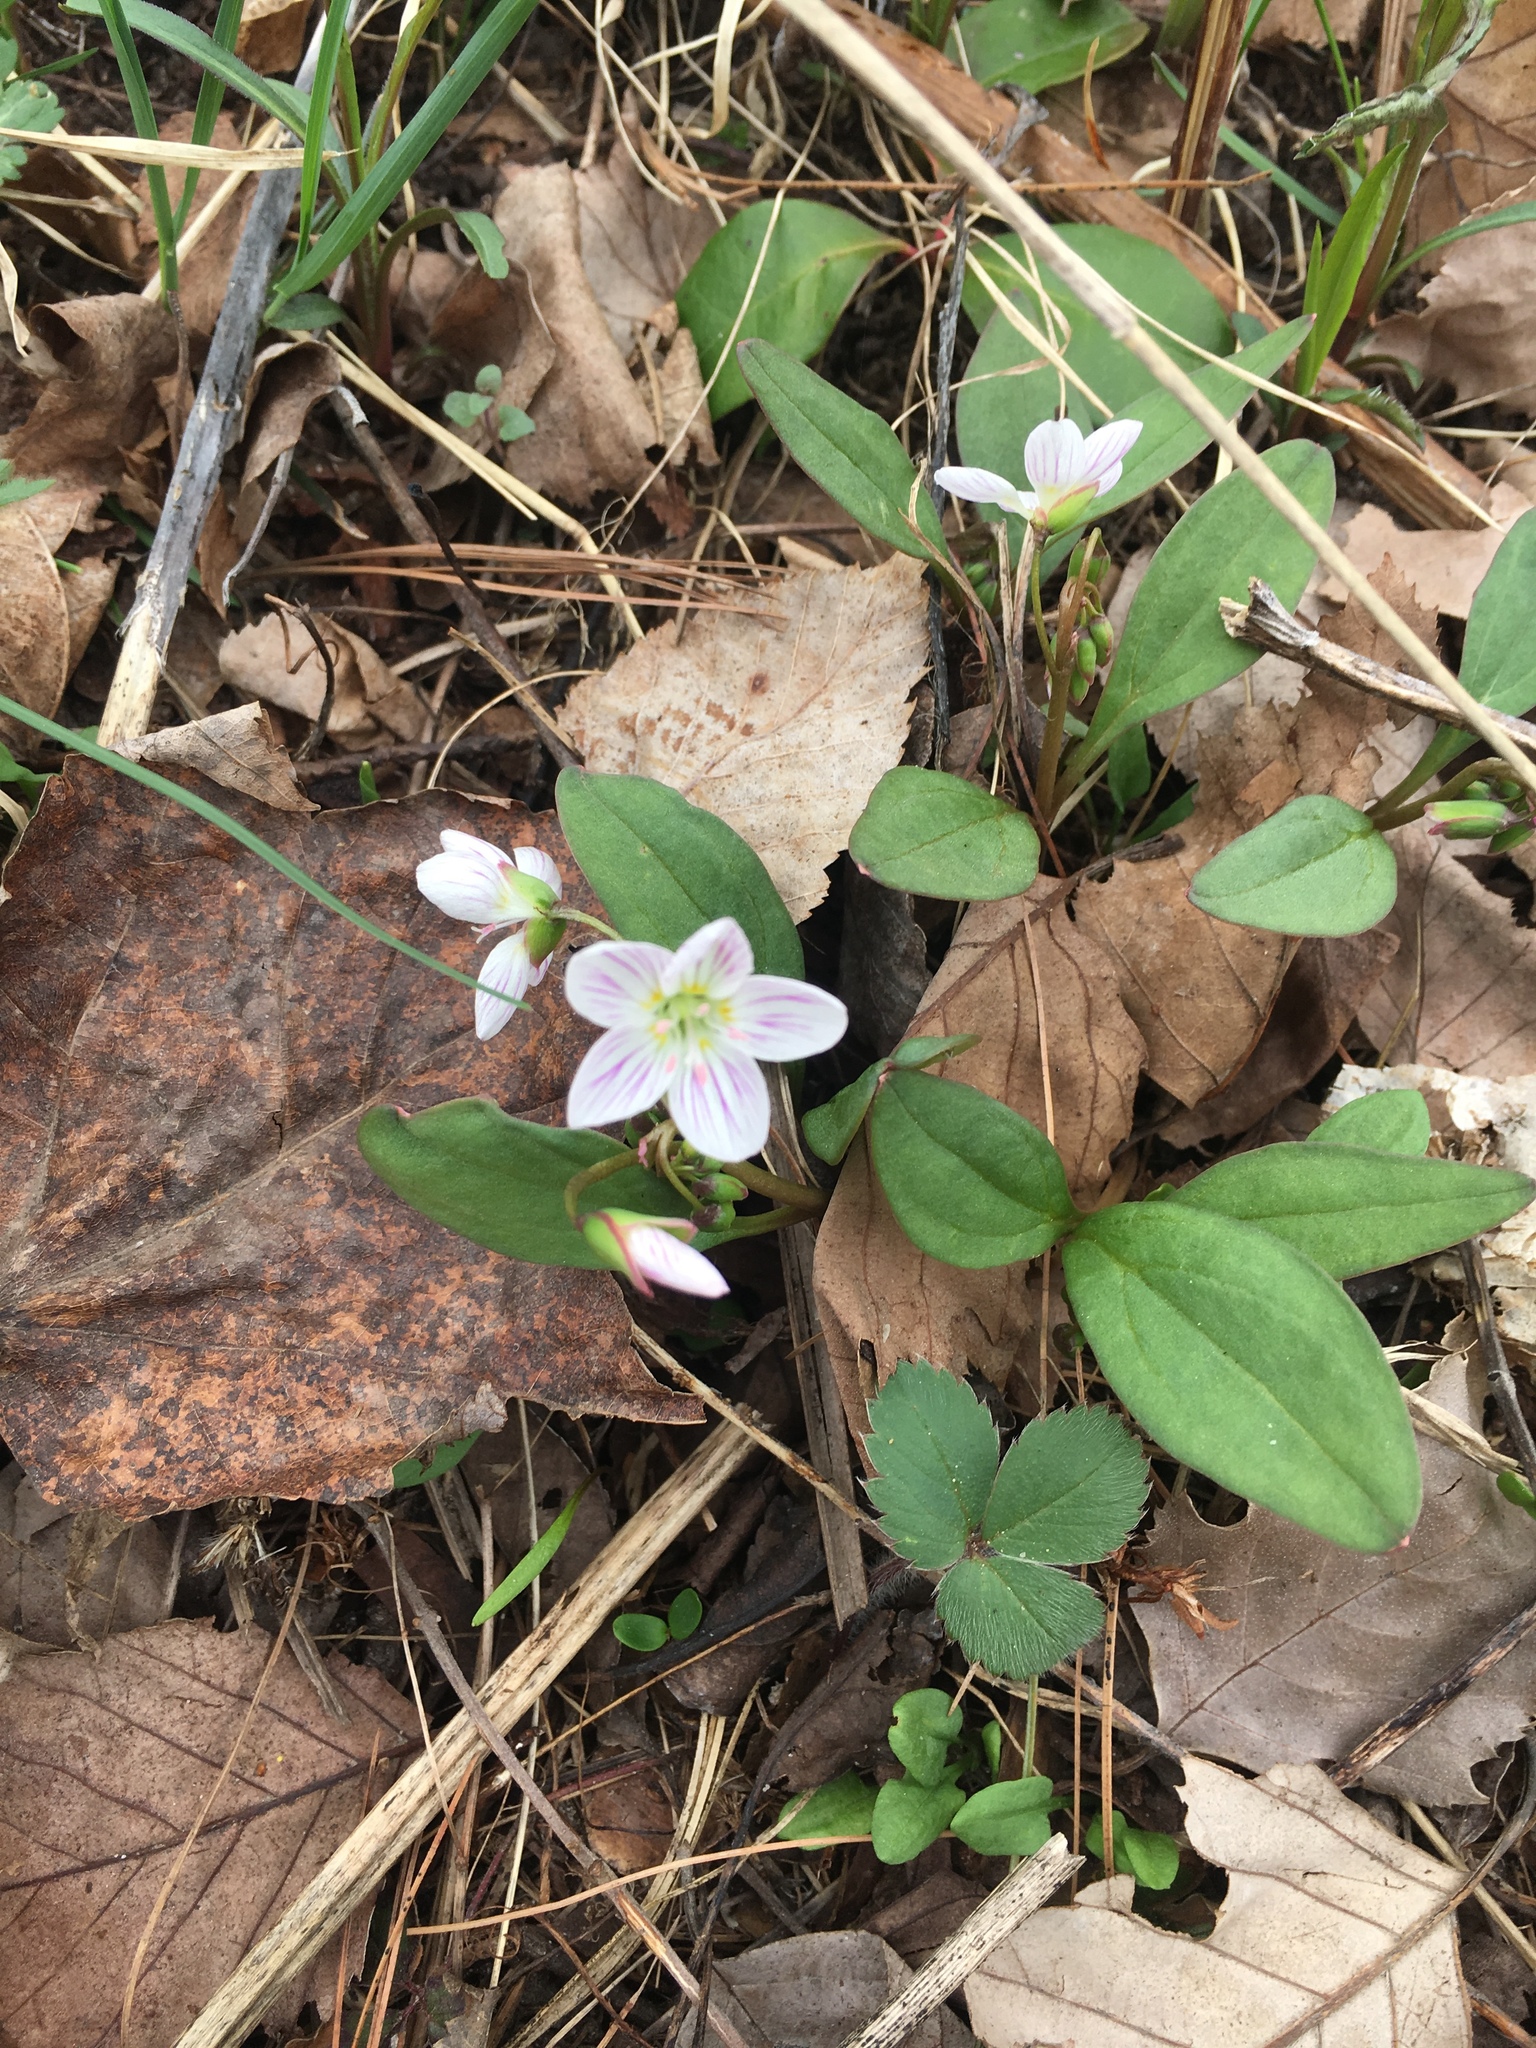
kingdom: Plantae
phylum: Tracheophyta
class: Magnoliopsida
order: Caryophyllales
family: Montiaceae
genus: Claytonia
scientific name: Claytonia caroliniana
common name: Carolina spring beauty
